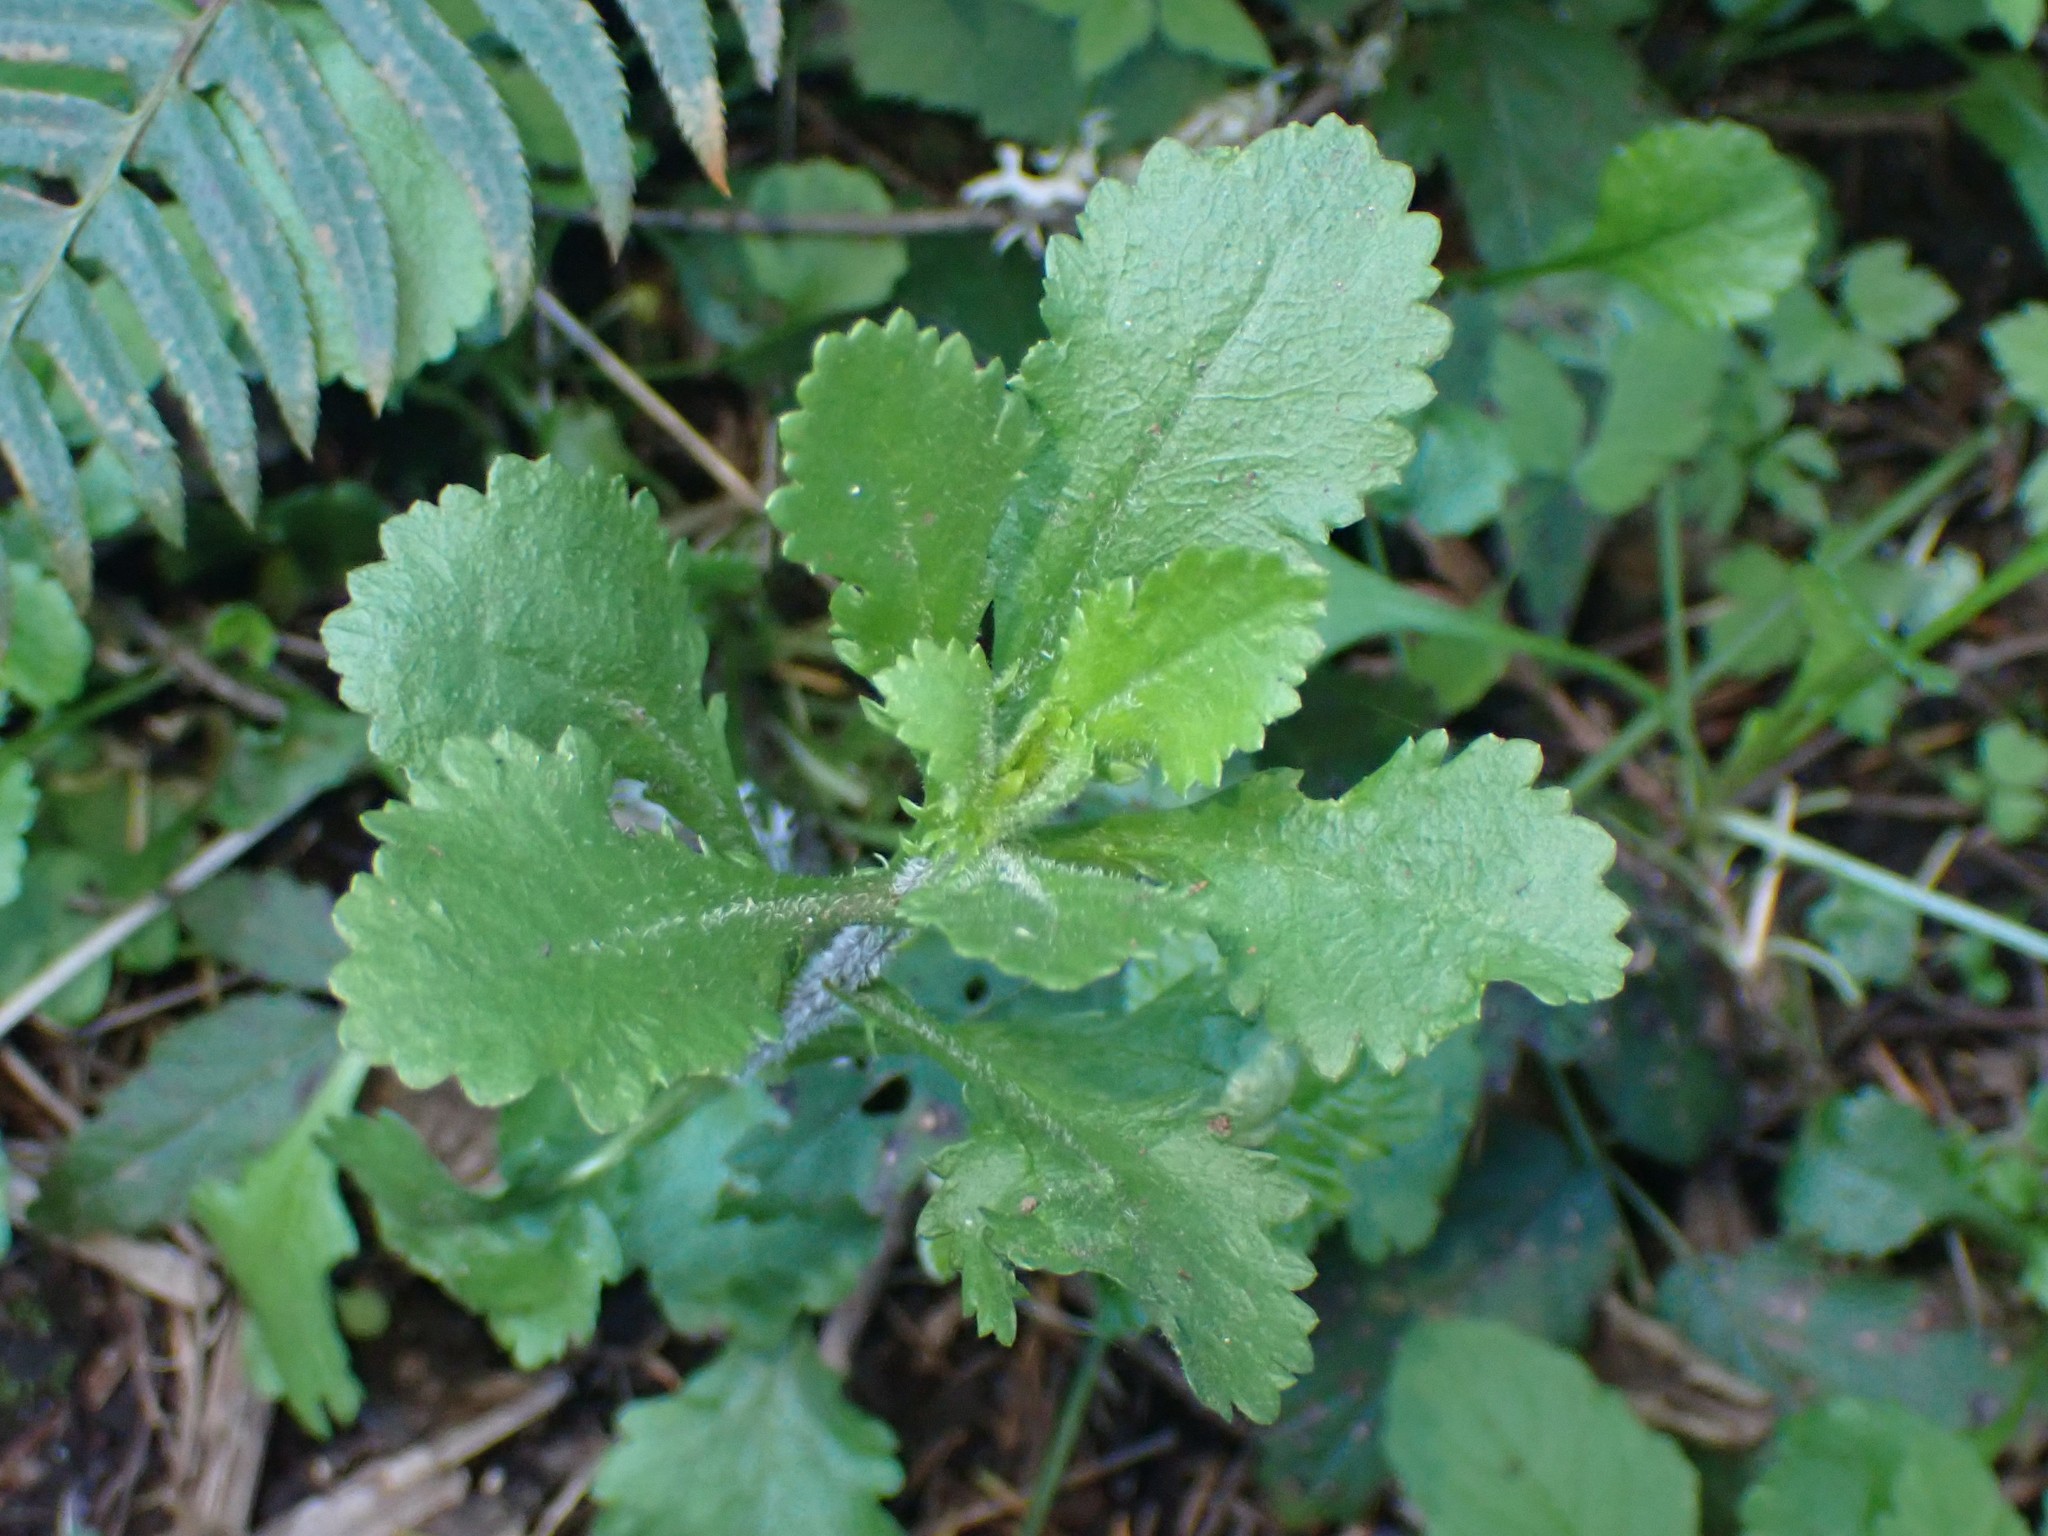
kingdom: Plantae
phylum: Tracheophyta
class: Magnoliopsida
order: Asterales
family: Asteraceae
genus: Leucanthemum
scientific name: Leucanthemum vulgare
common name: Oxeye daisy
